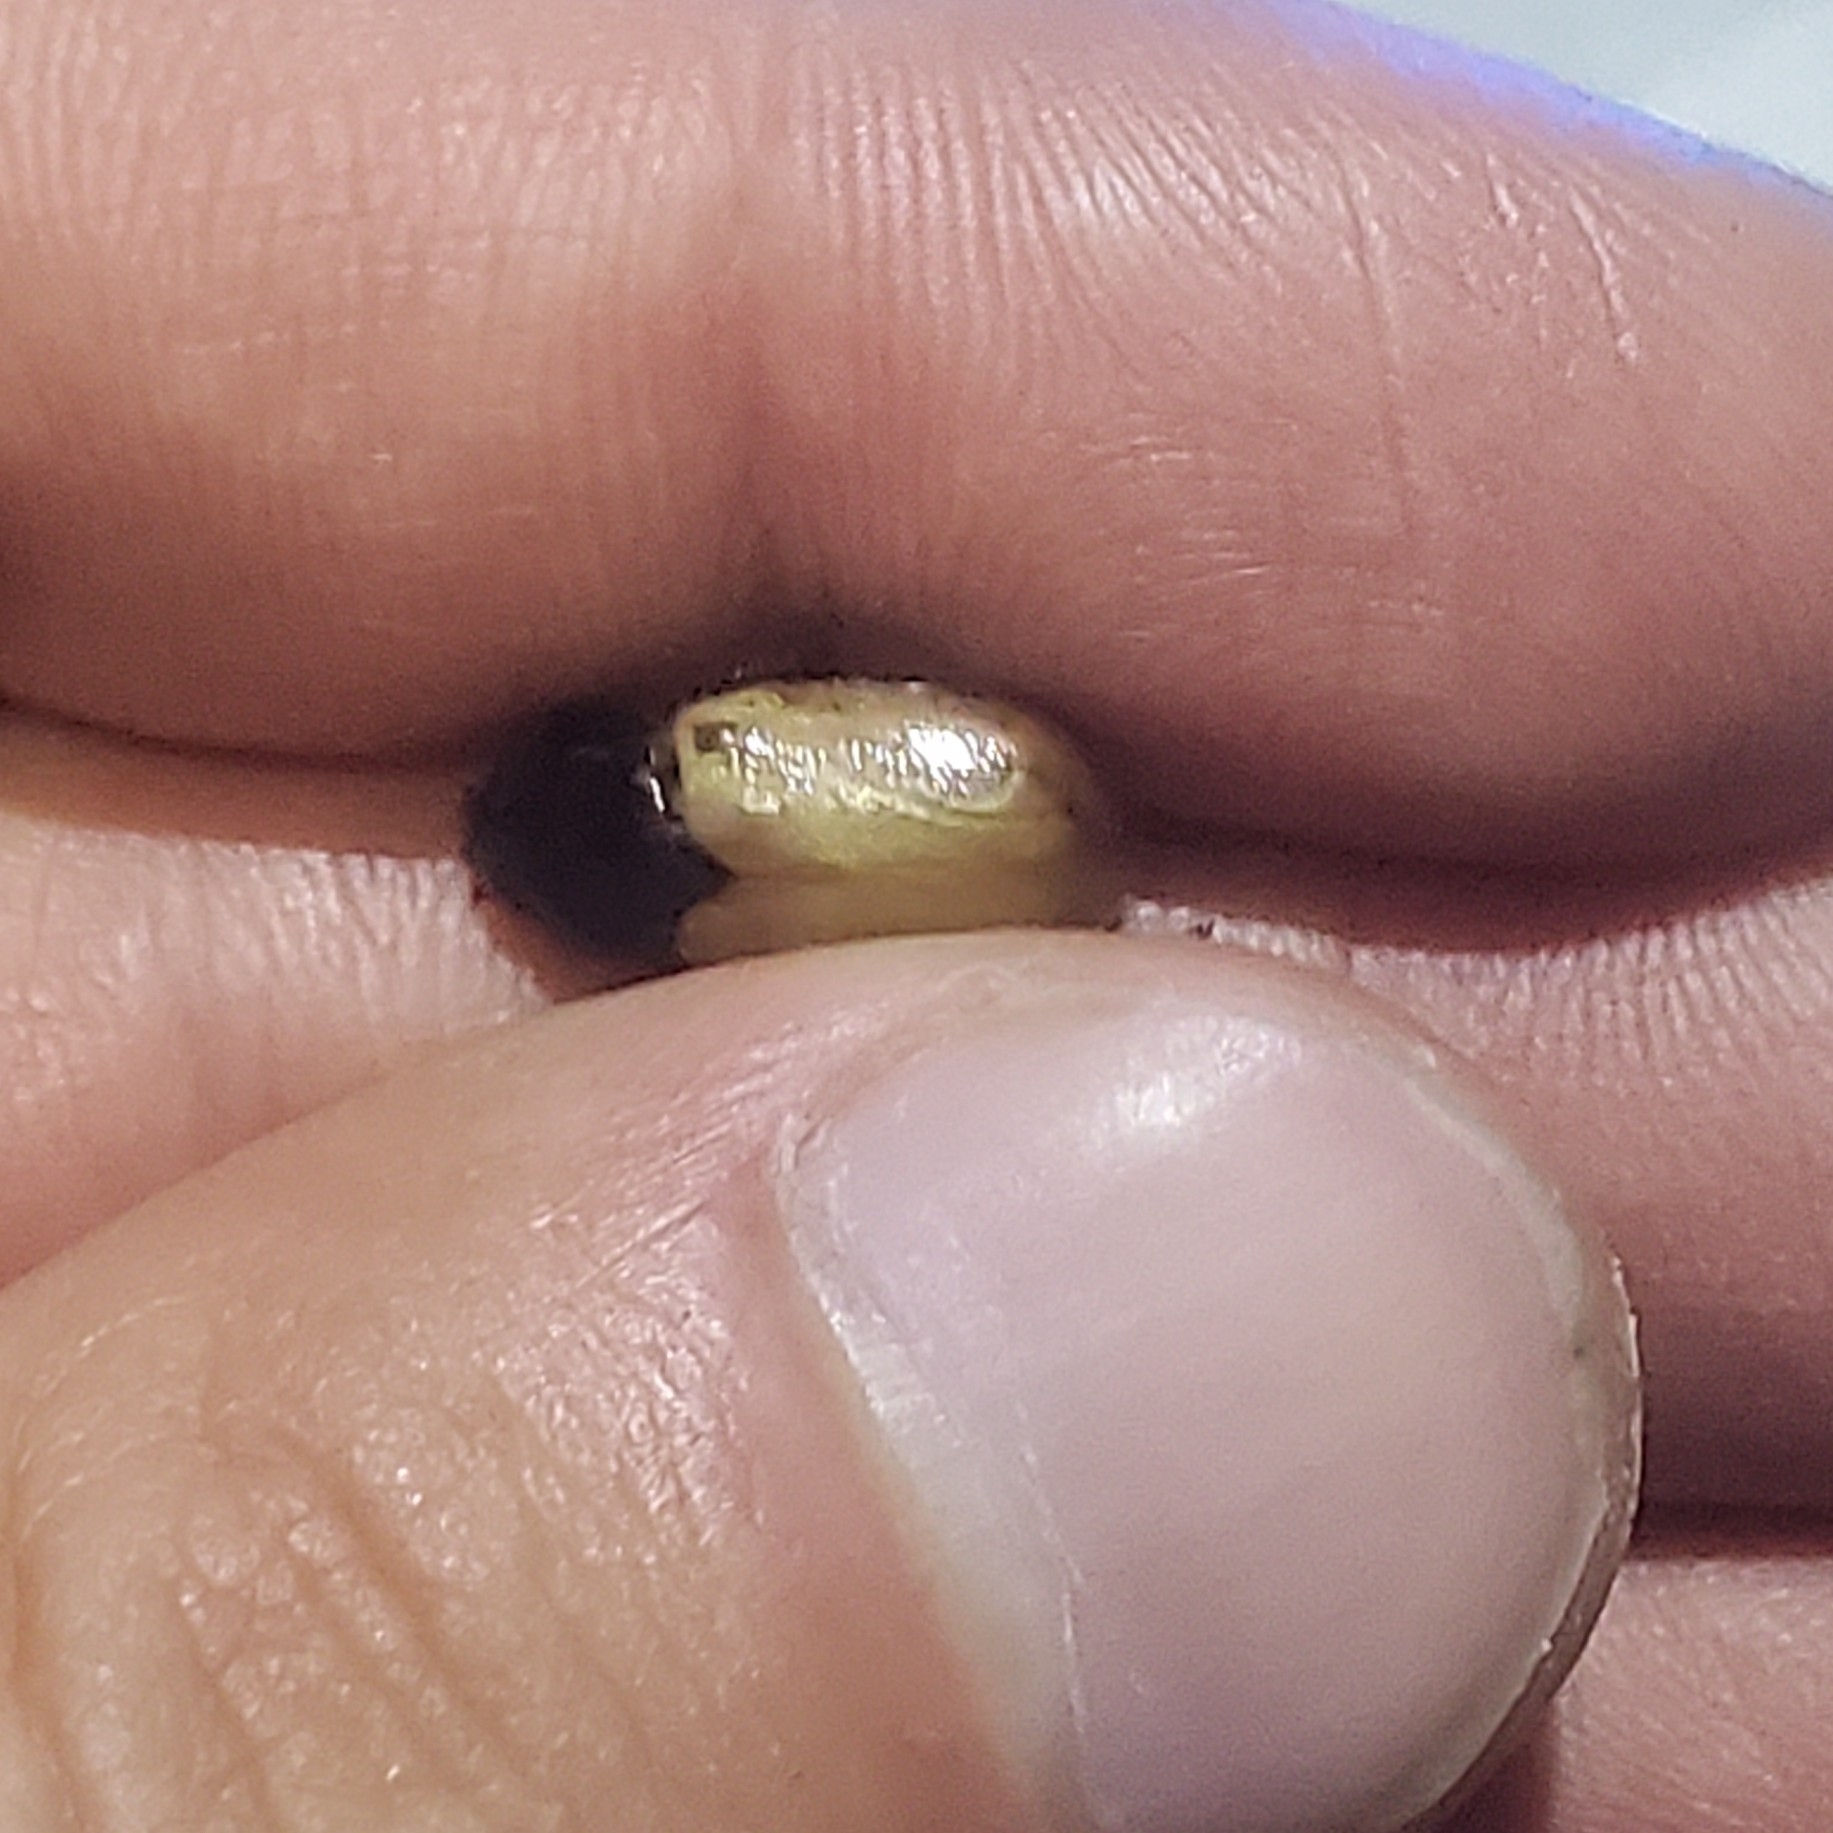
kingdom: Animalia
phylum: Arthropoda
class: Insecta
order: Coleoptera
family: Scarabaeidae
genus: Cyclocephala
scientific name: Cyclocephala melanocephala
